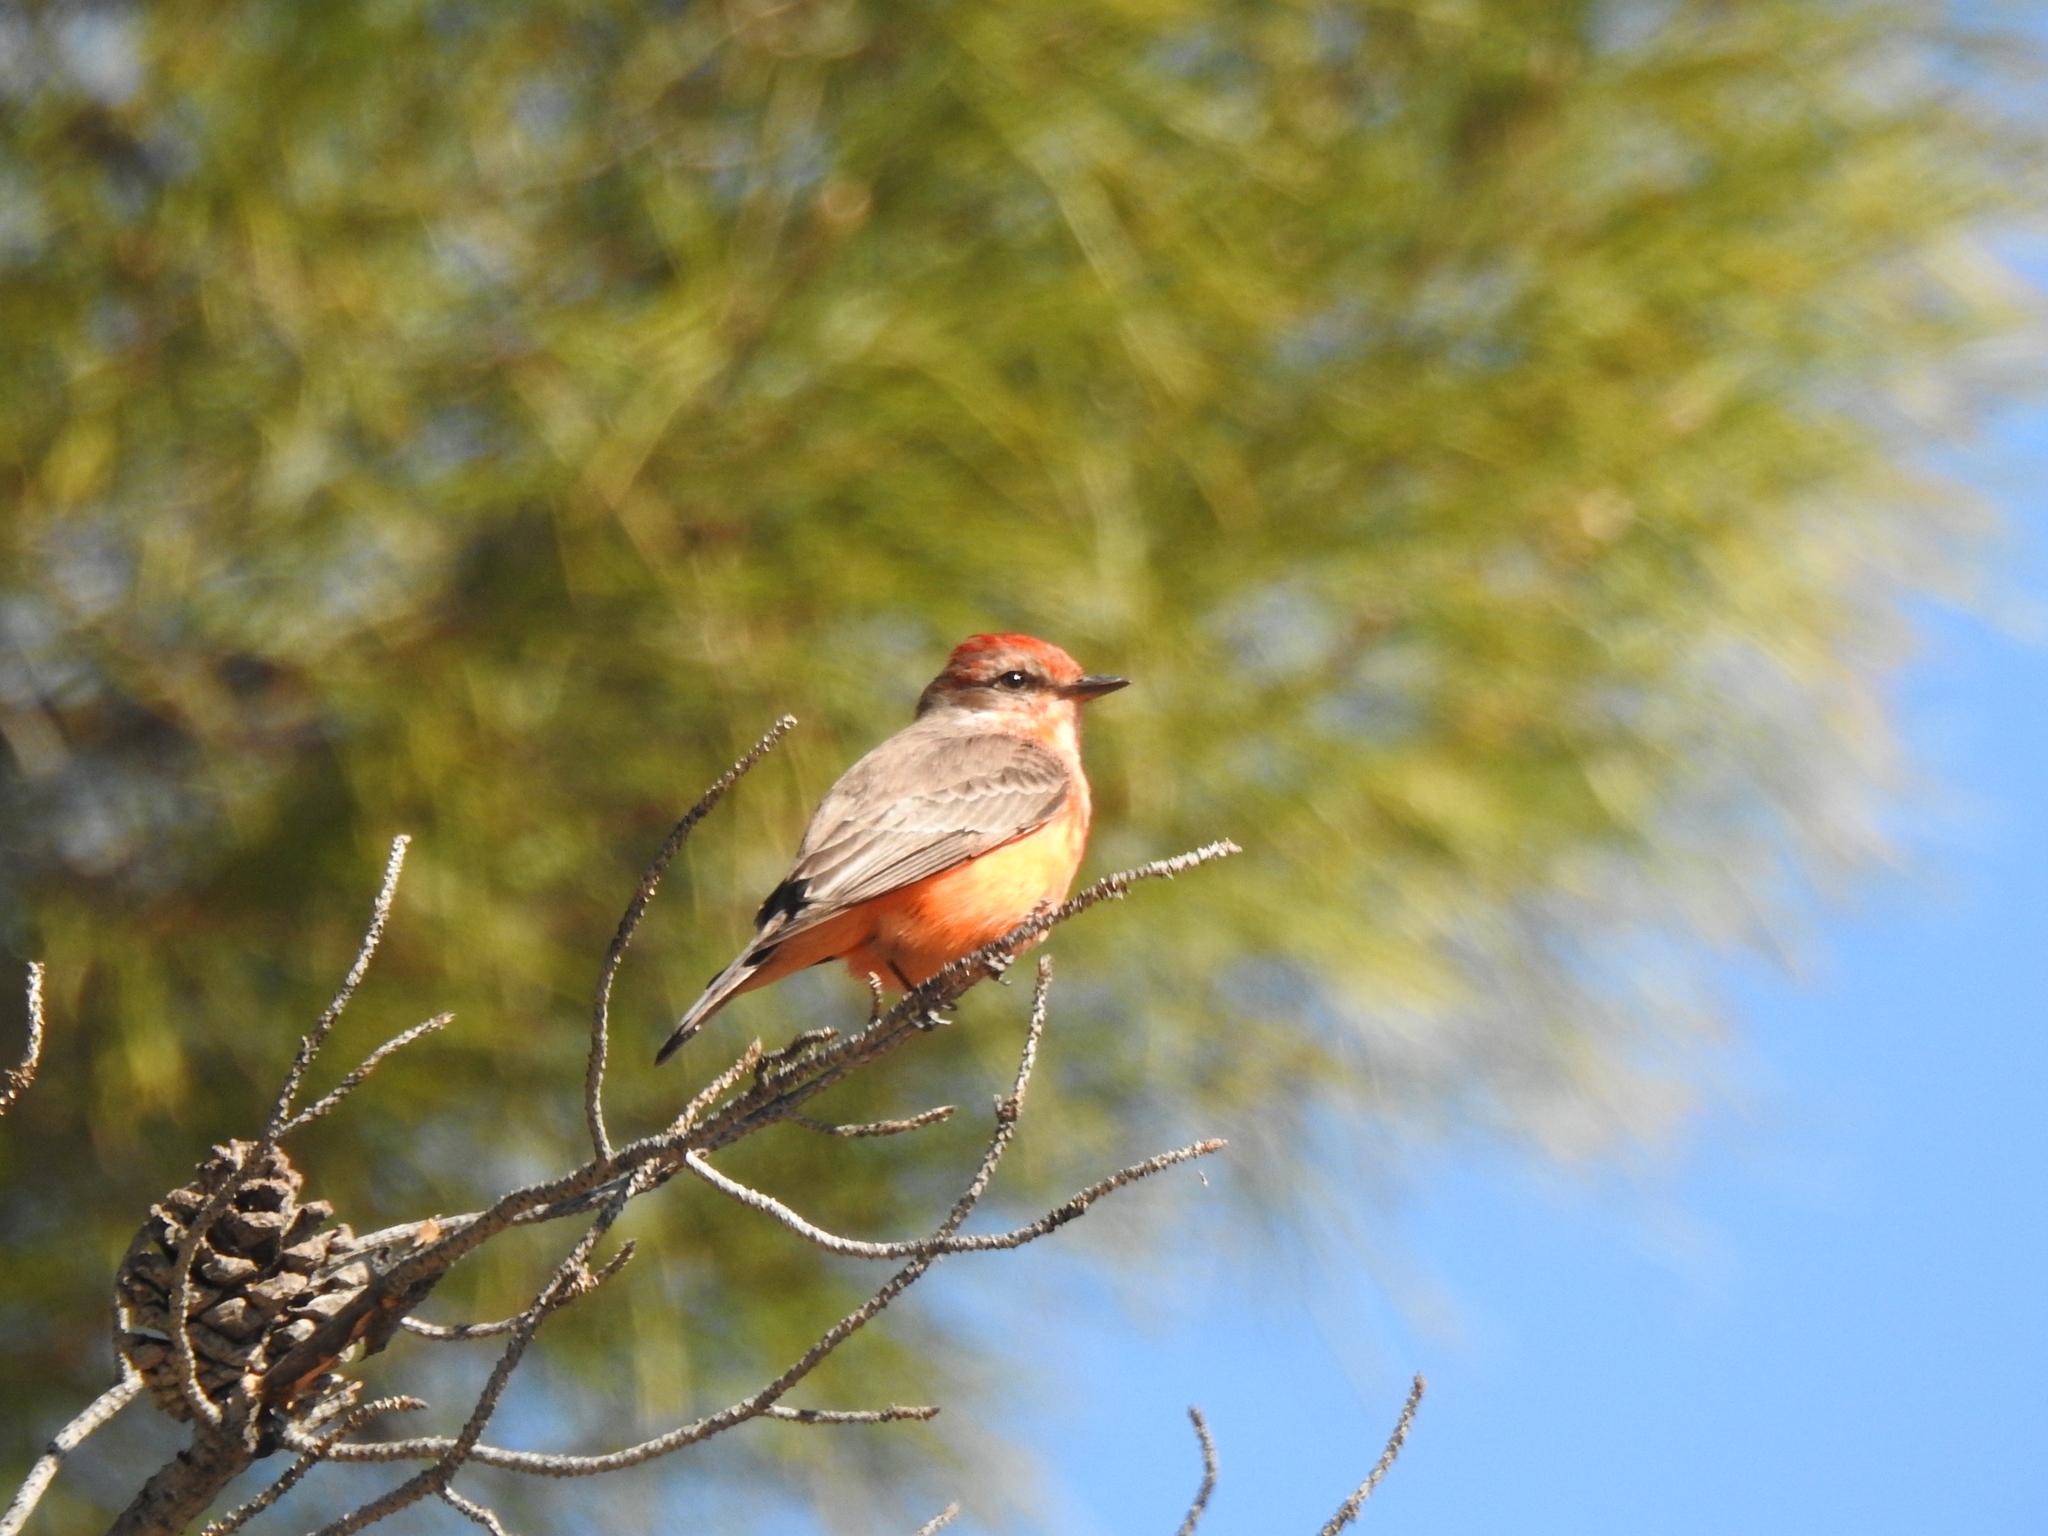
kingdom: Animalia
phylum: Chordata
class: Aves
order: Passeriformes
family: Tyrannidae
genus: Pyrocephalus
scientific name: Pyrocephalus rubinus
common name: Vermilion flycatcher
